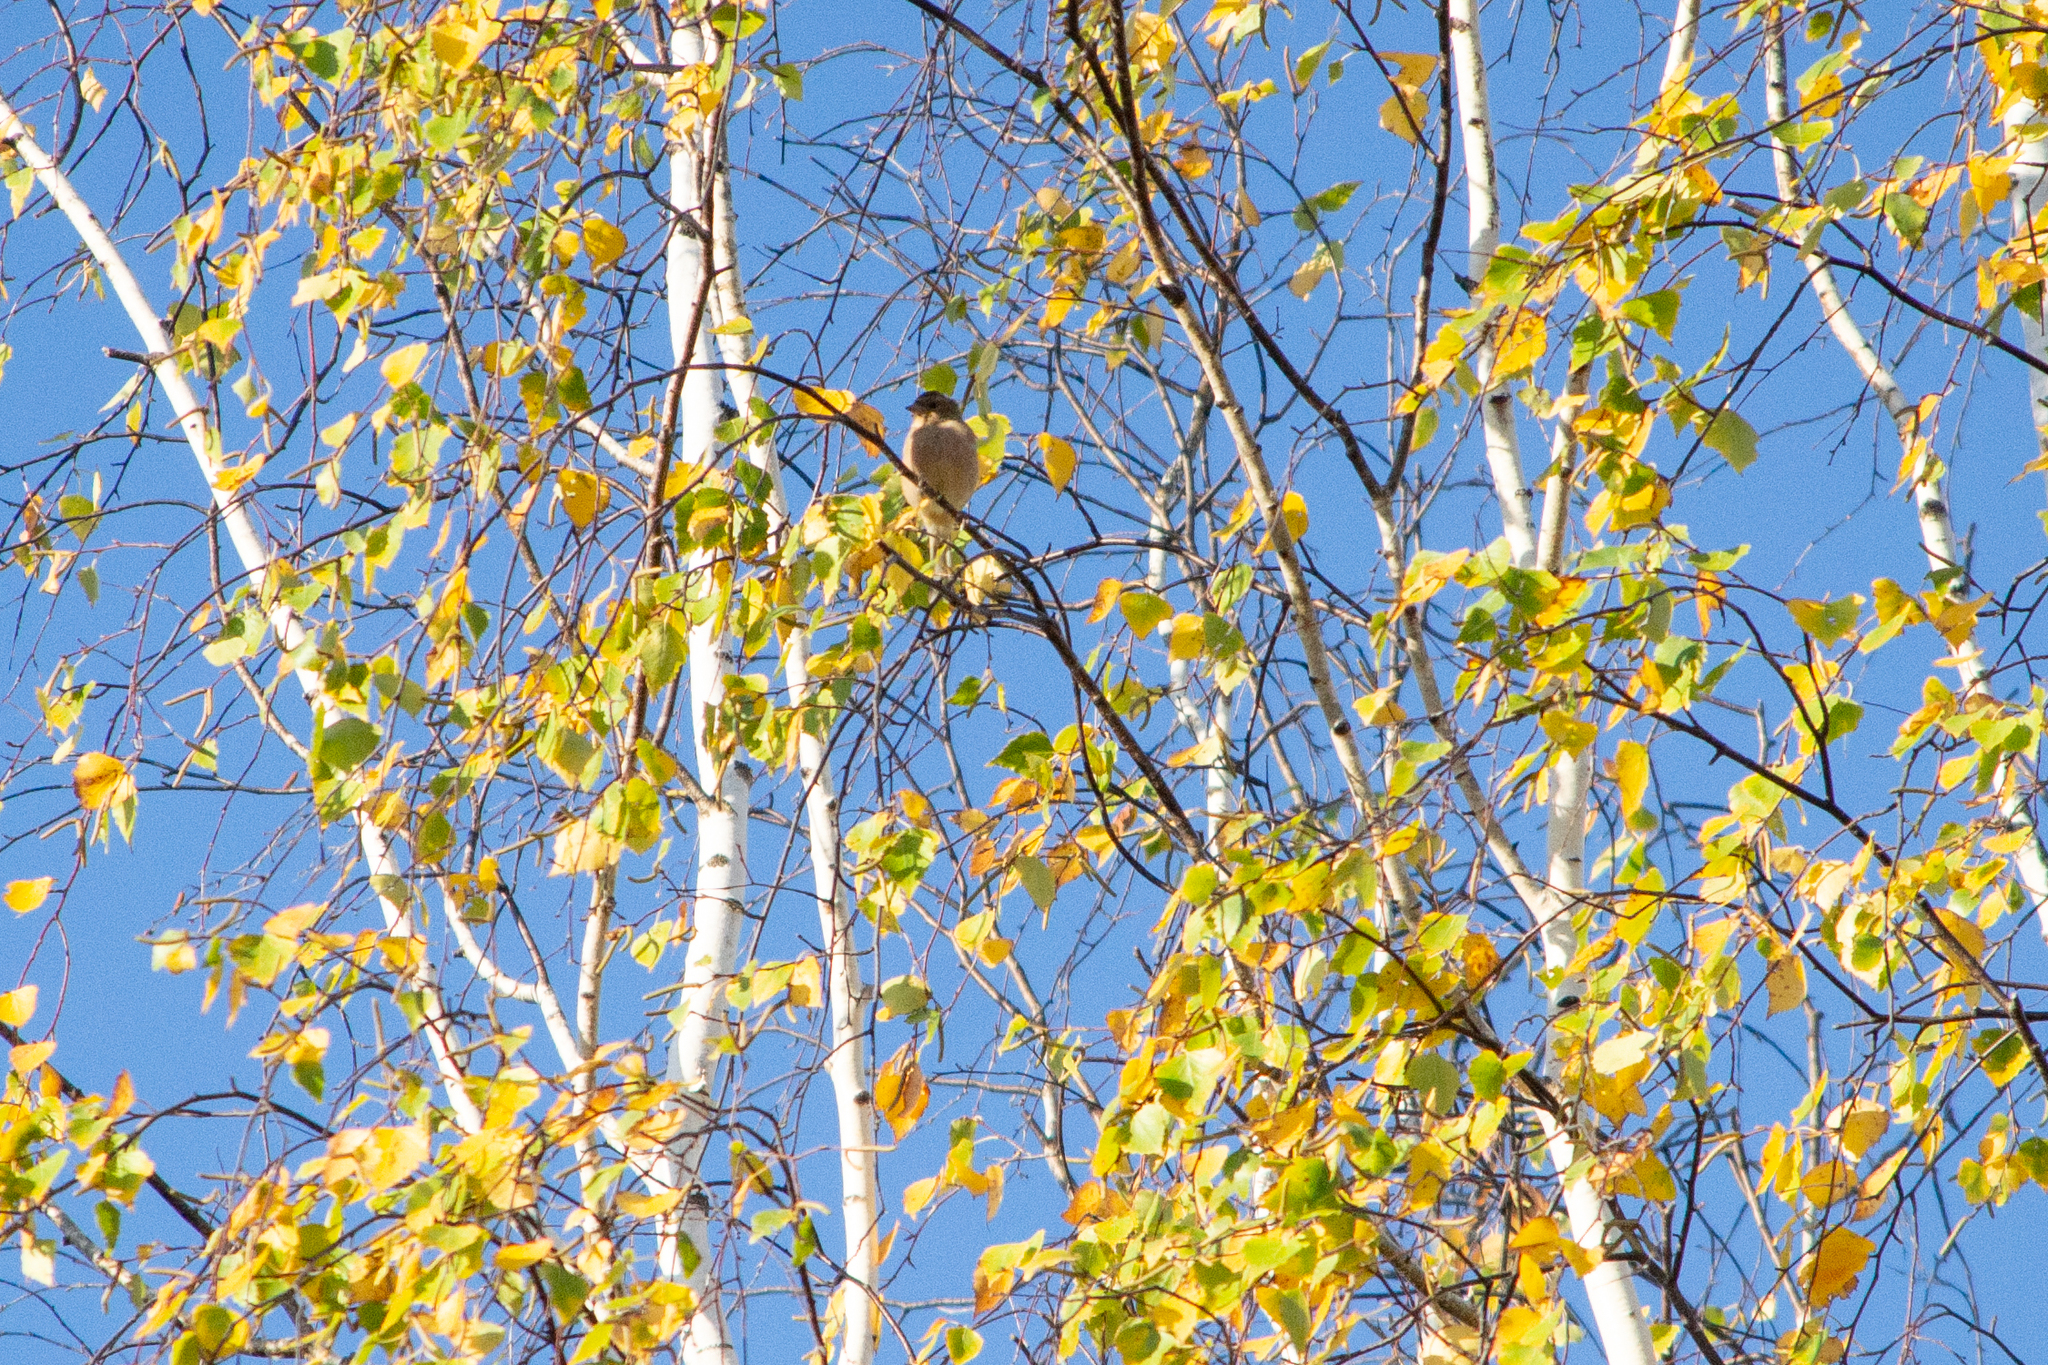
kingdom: Animalia
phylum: Chordata
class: Aves
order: Passeriformes
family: Fringillidae
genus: Fringilla
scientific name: Fringilla coelebs
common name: Common chaffinch
